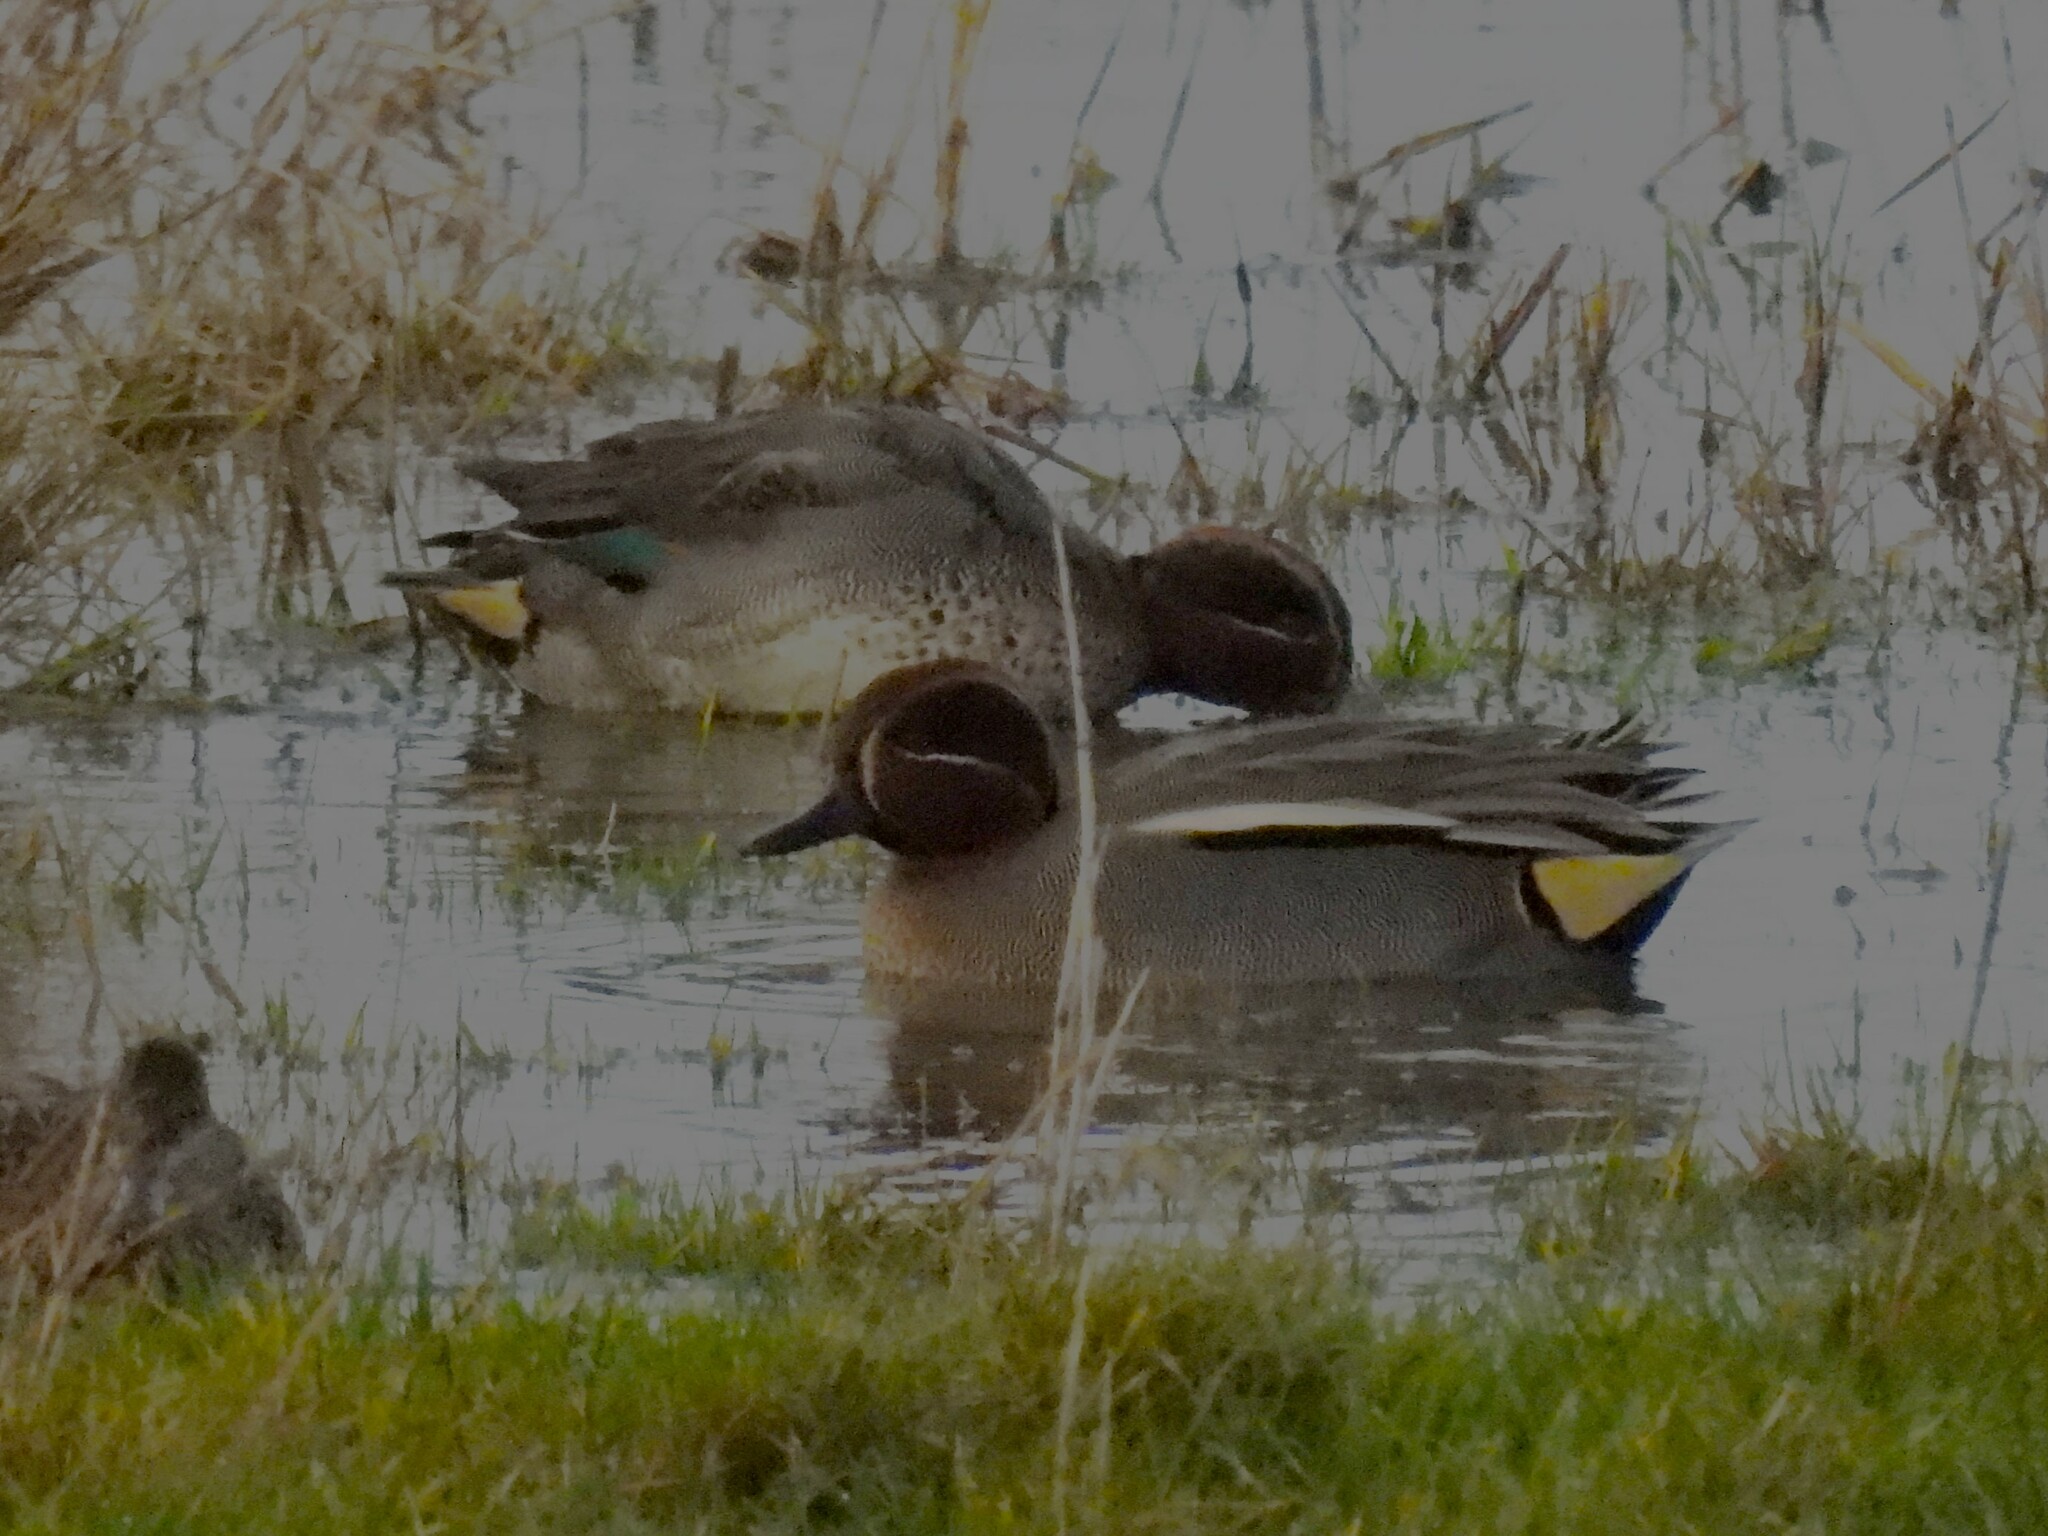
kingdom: Animalia
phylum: Chordata
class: Aves
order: Anseriformes
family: Anatidae
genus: Anas
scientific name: Anas crecca
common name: Eurasian teal
